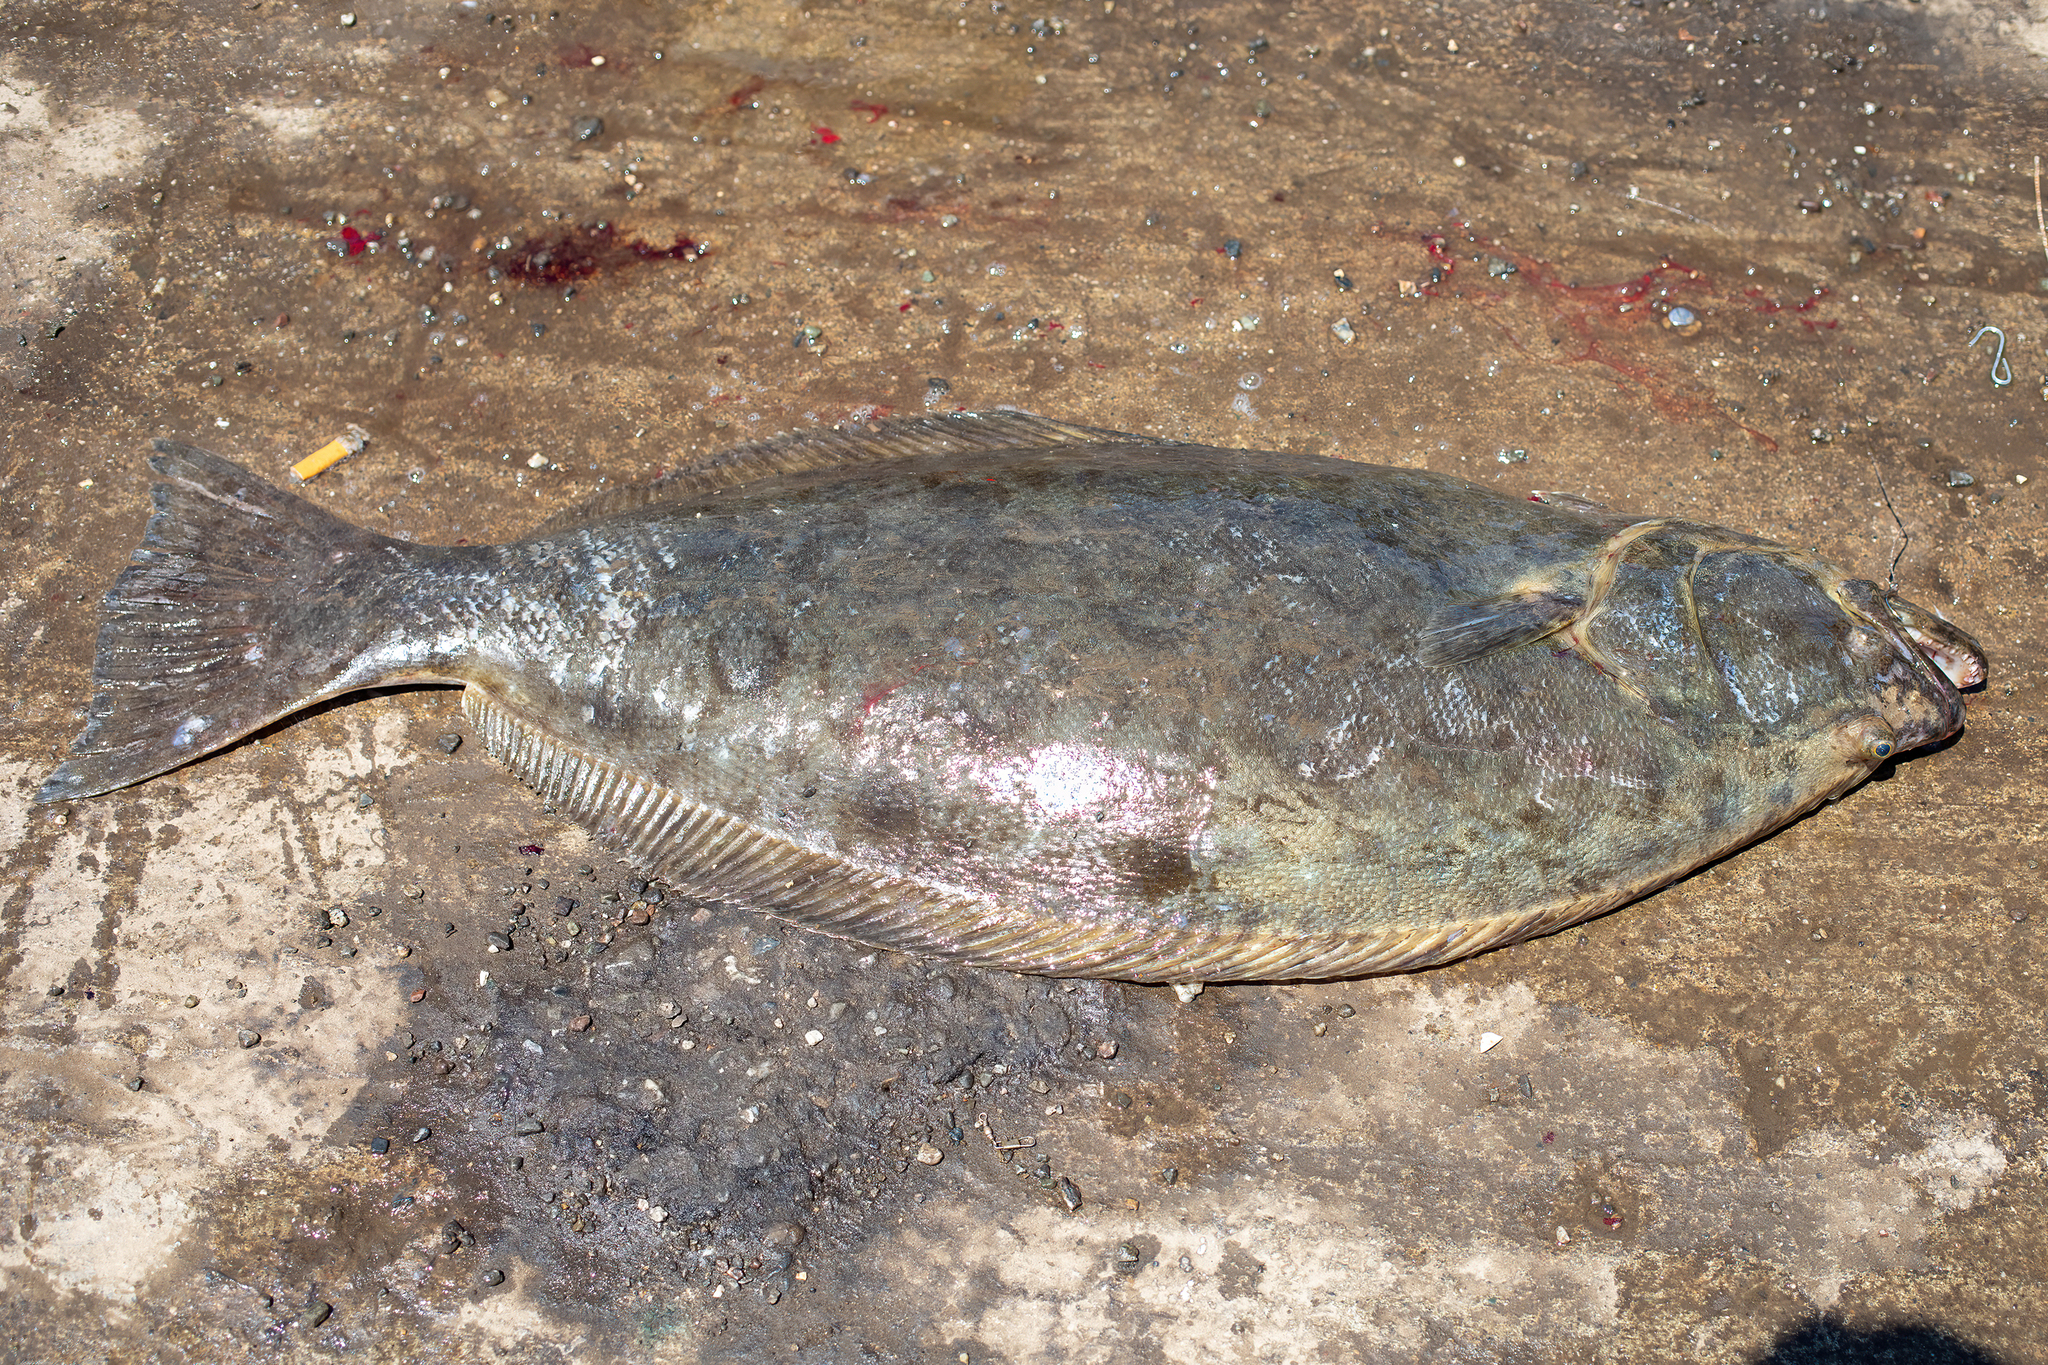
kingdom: Animalia
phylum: Chordata
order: Pleuronectiformes
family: Paralichthyidae
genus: Paralichthys
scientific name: Paralichthys californicus
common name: California halibut
